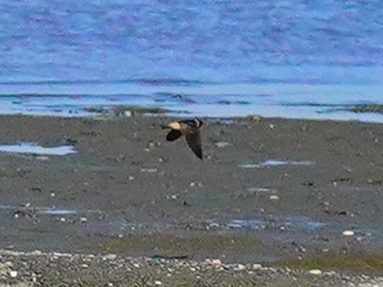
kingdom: Animalia
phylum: Chordata
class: Aves
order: Passeriformes
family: Hirundinidae
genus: Petrochelidon
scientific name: Petrochelidon pyrrhonota
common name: American cliff swallow
